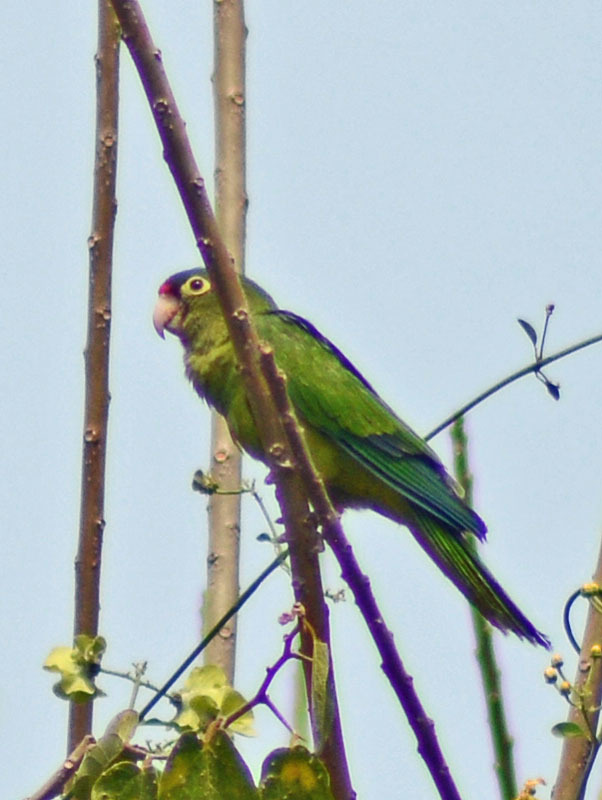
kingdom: Animalia
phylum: Chordata
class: Aves
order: Psittaciformes
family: Psittacidae
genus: Aratinga
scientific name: Aratinga canicularis
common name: Orange-fronted parakeet
